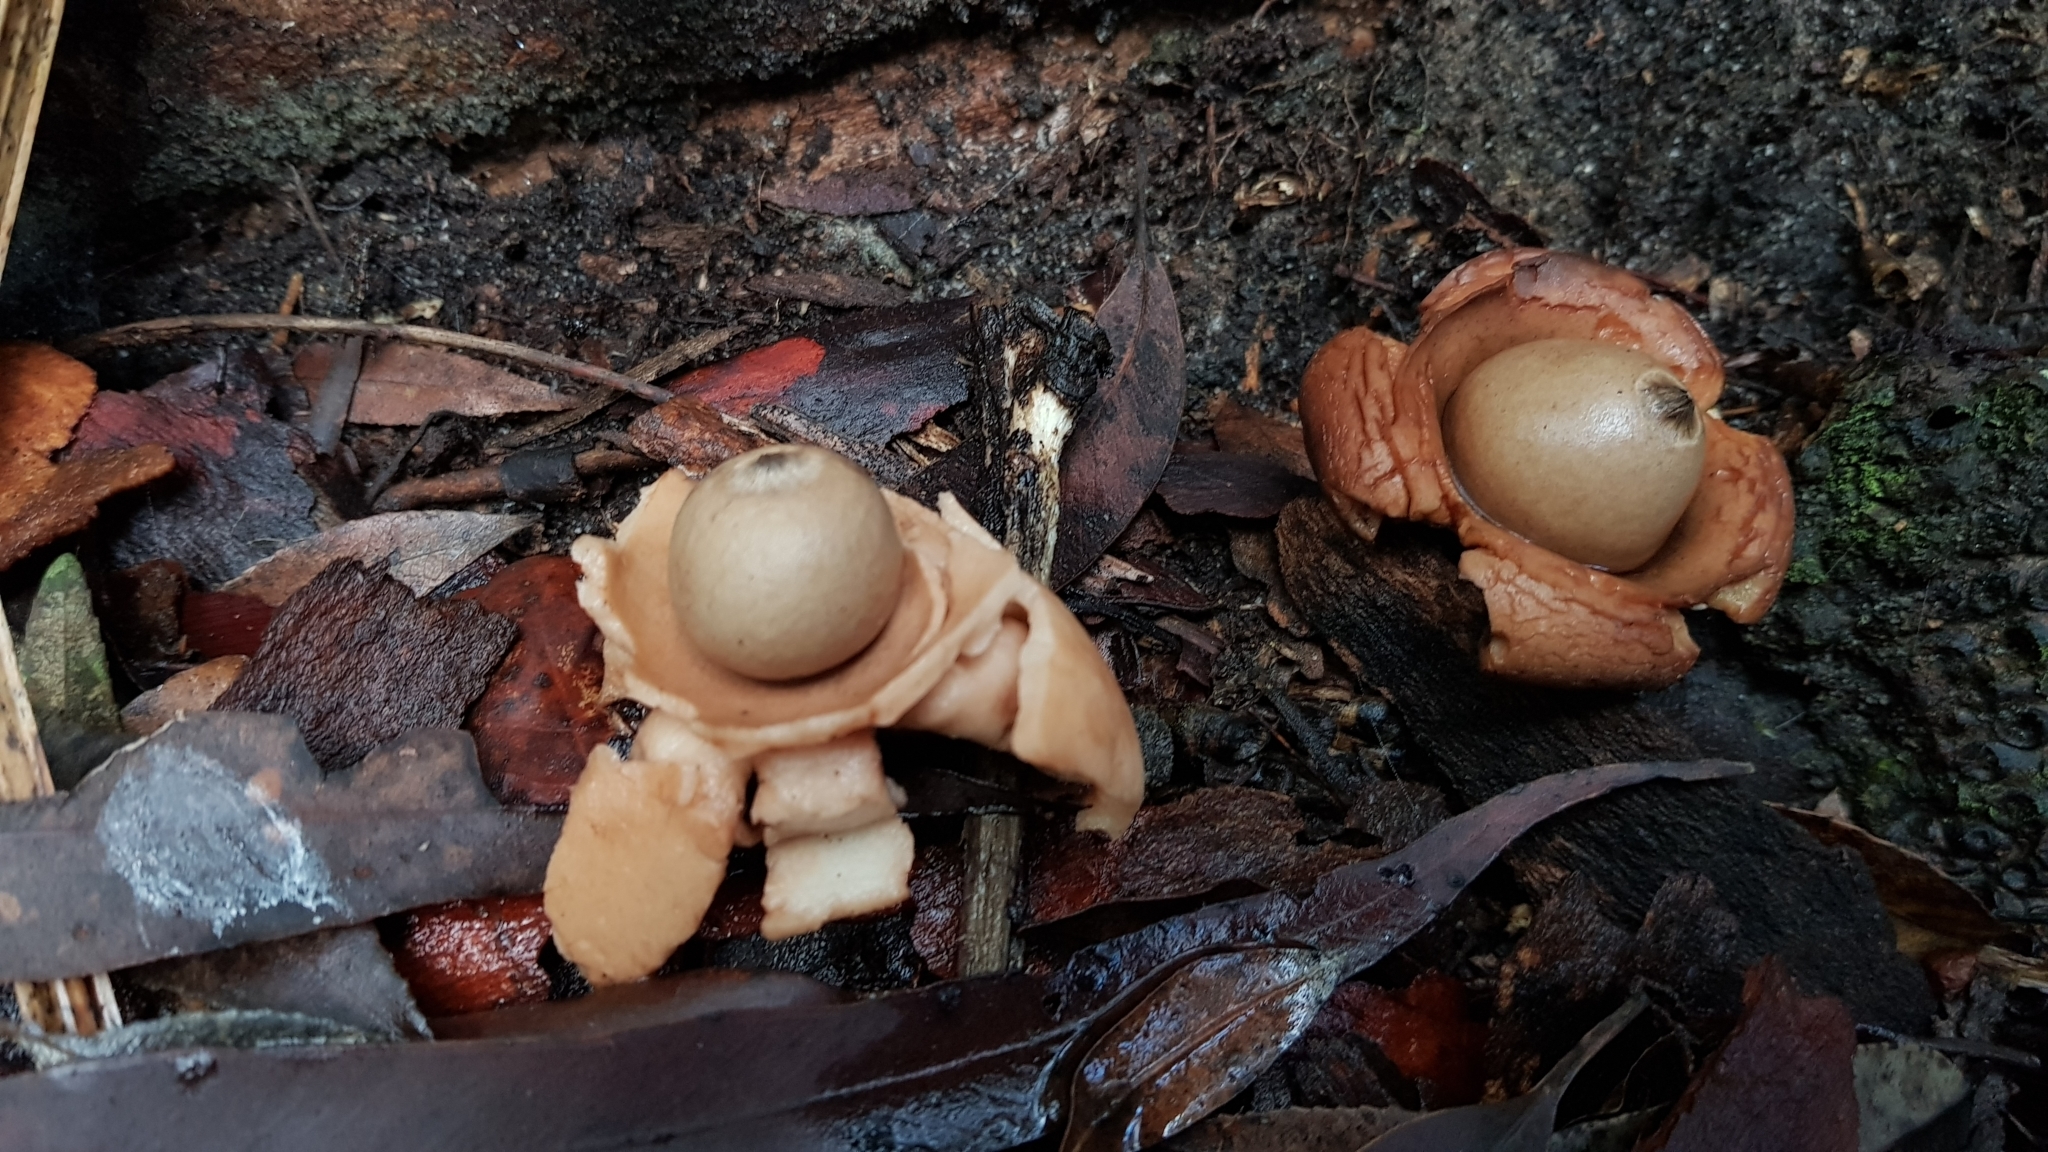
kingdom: Fungi
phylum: Basidiomycota
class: Agaricomycetes
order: Geastrales
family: Geastraceae
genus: Geastrum
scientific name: Geastrum saccatum
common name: Rounded earthstar
